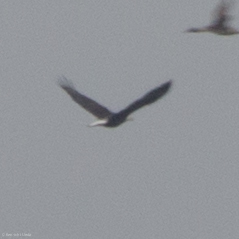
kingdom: Animalia
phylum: Chordata
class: Aves
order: Accipitriformes
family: Accipitridae
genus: Haliaeetus
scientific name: Haliaeetus leucocephalus
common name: Bald eagle
